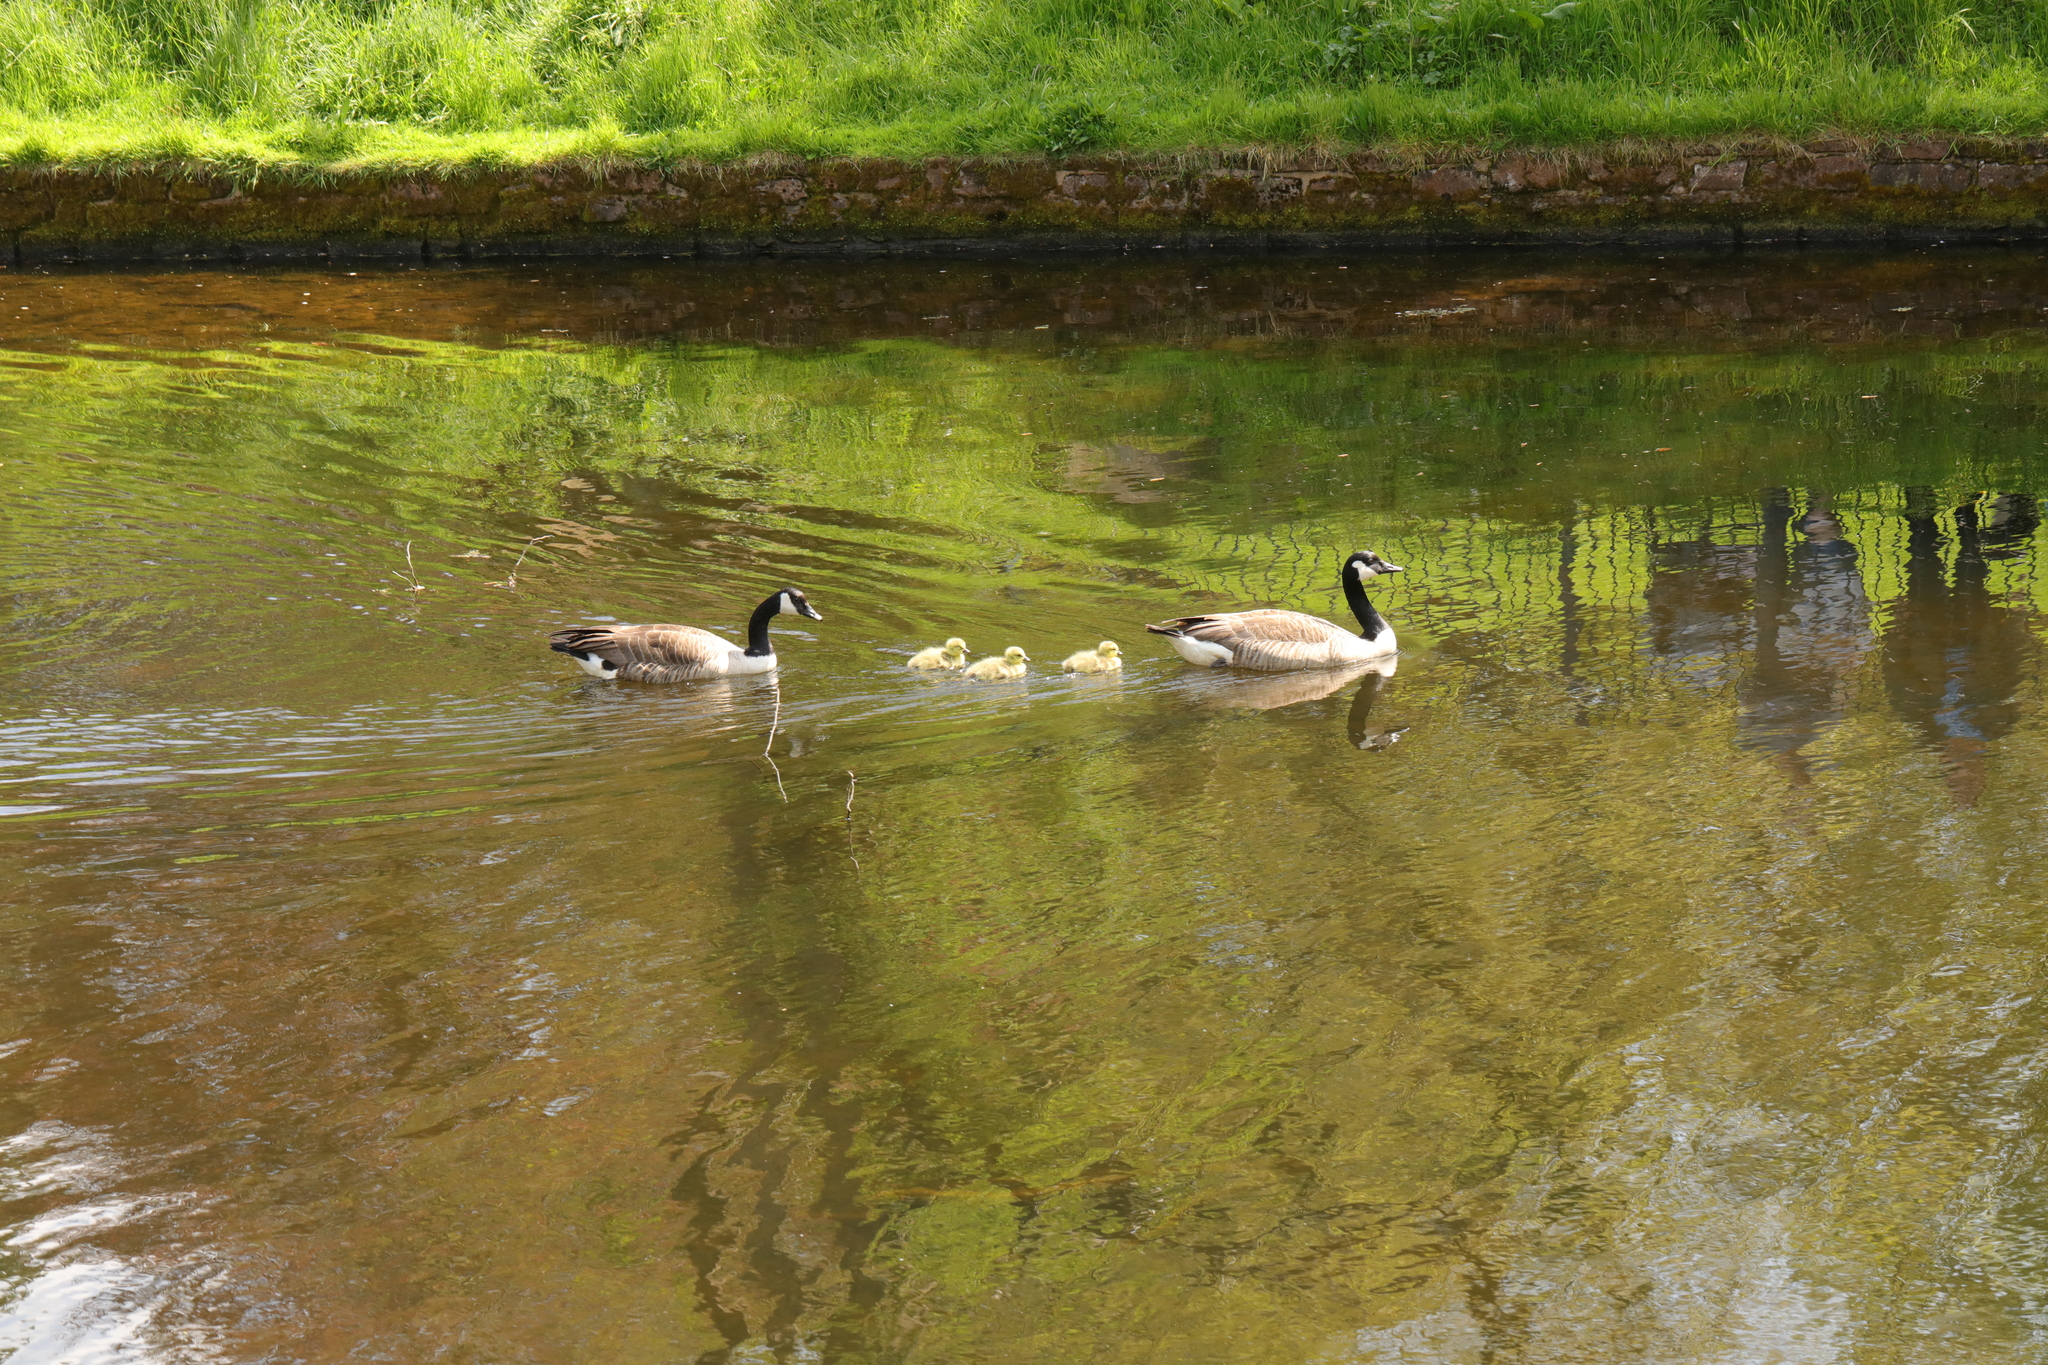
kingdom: Animalia
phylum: Chordata
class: Aves
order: Anseriformes
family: Anatidae
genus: Branta
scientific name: Branta canadensis
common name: Canada goose
